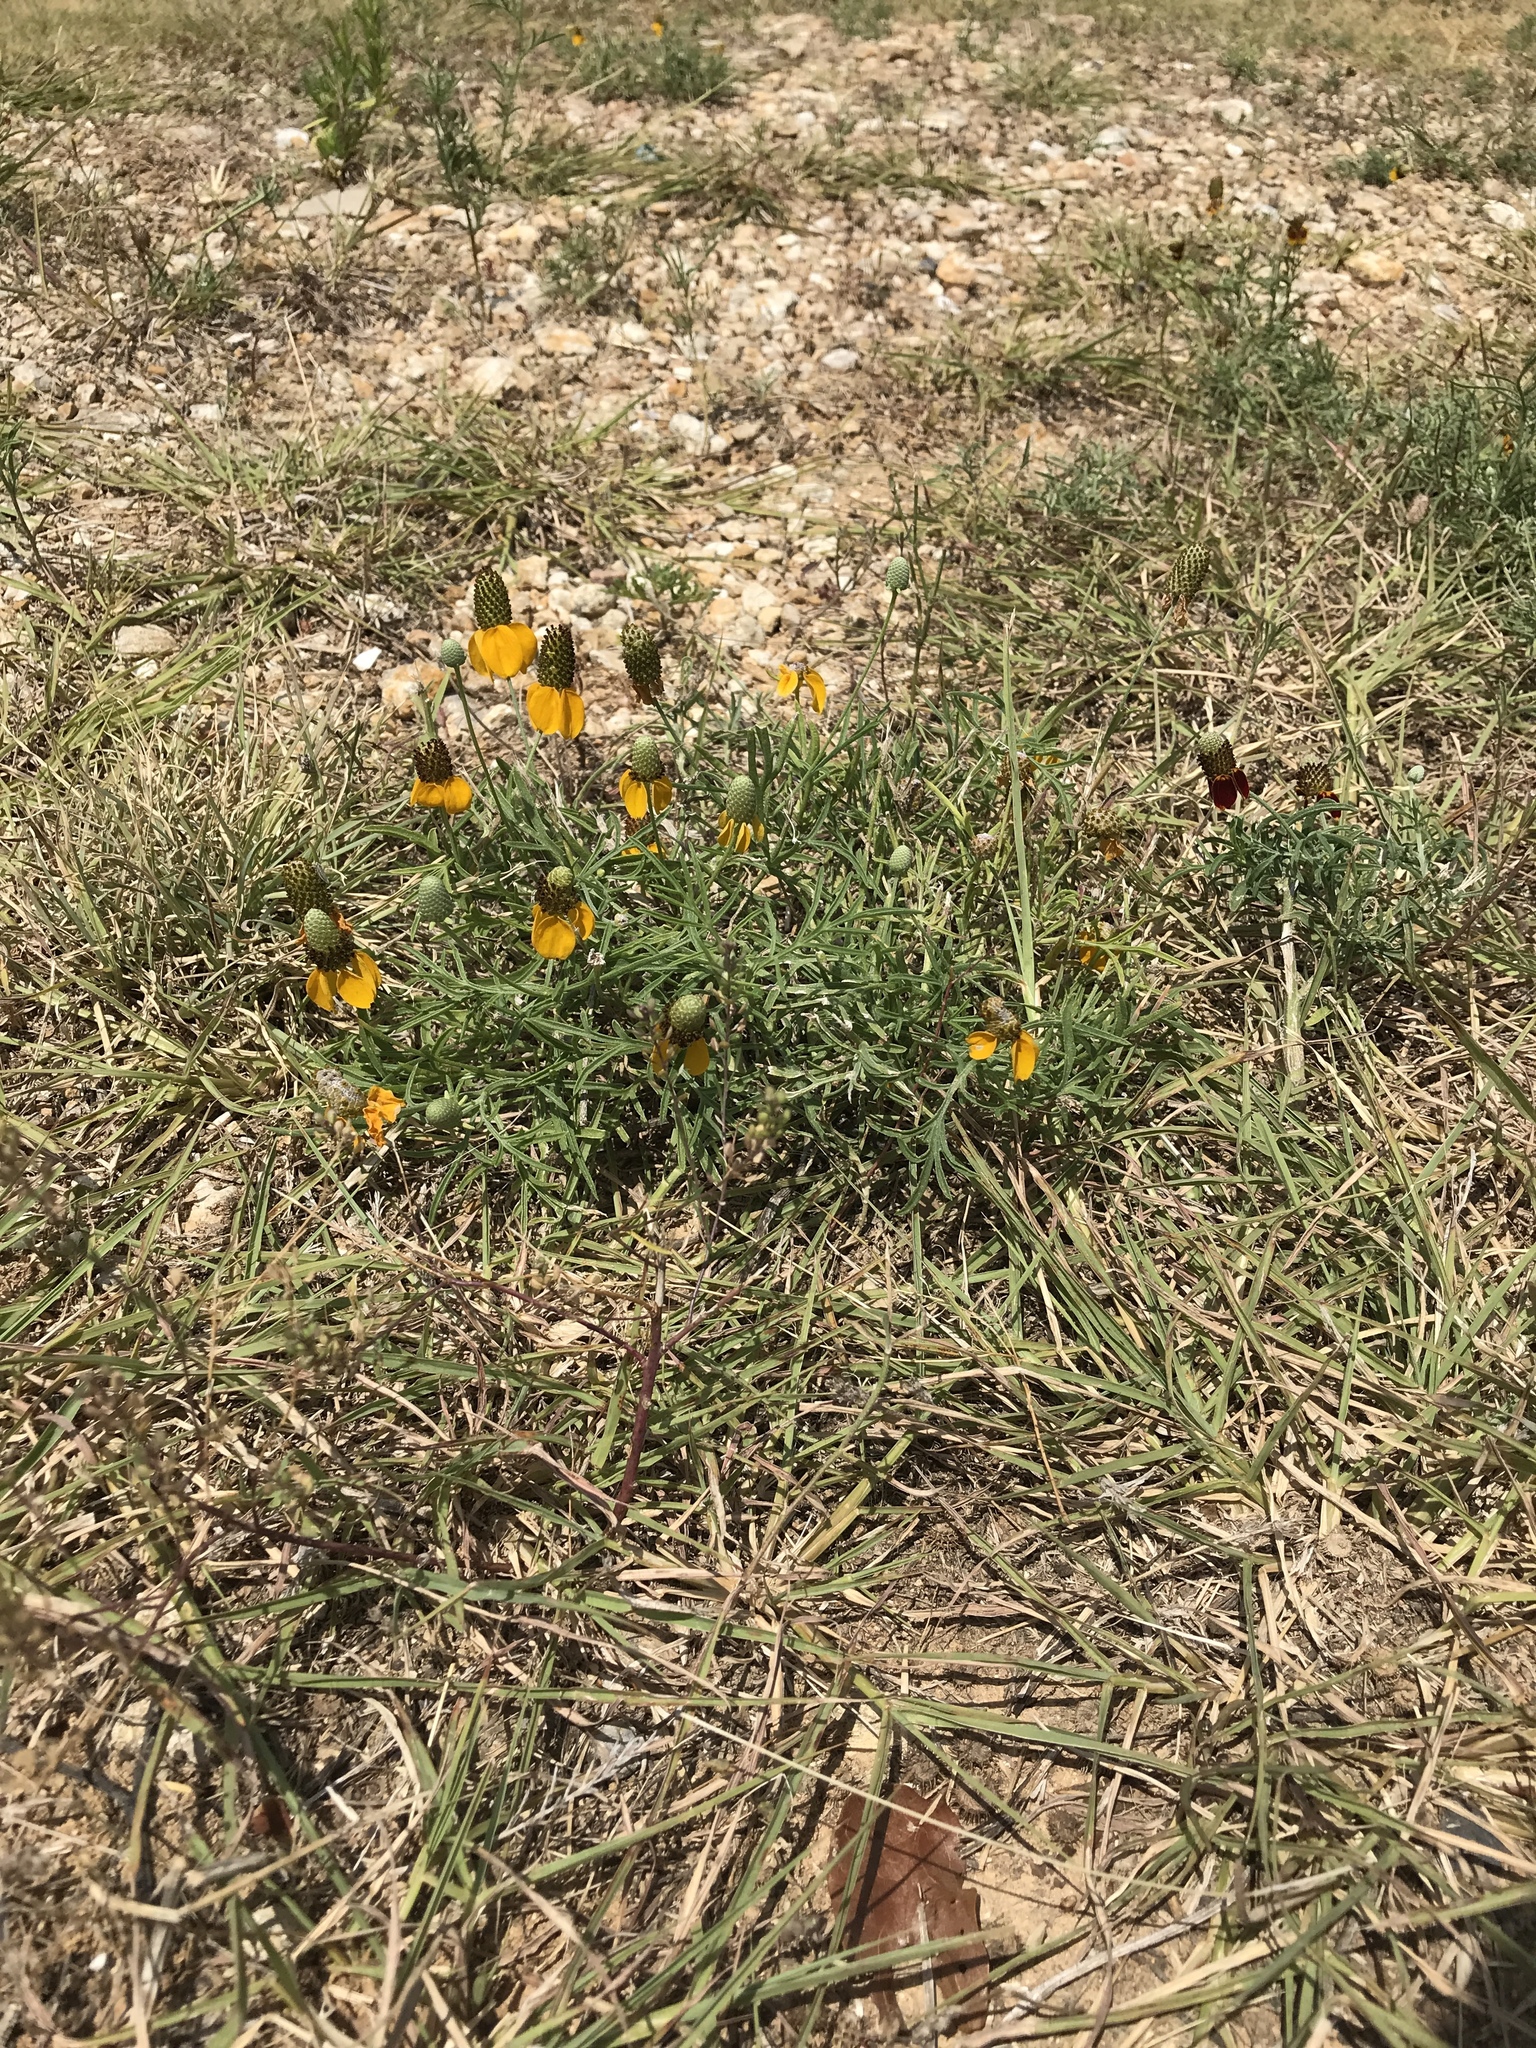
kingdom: Plantae
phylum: Tracheophyta
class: Magnoliopsida
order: Asterales
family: Asteraceae
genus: Ratibida
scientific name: Ratibida columnifera
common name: Prairie coneflower
